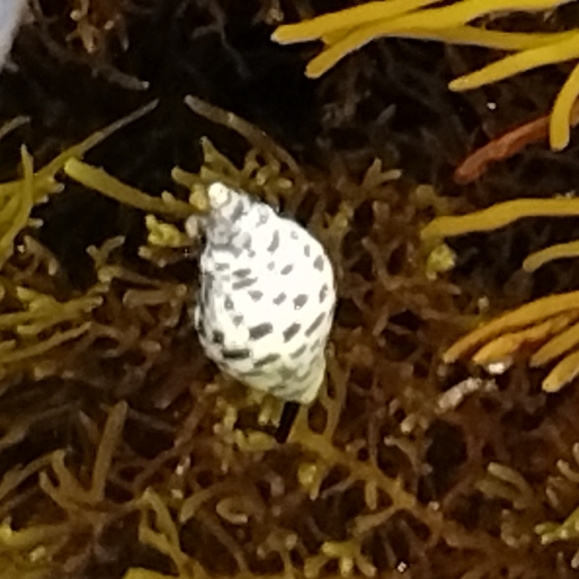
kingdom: Animalia
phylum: Mollusca
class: Gastropoda
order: Neogastropoda
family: Cominellidae
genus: Cominella
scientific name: Cominella lineolata
